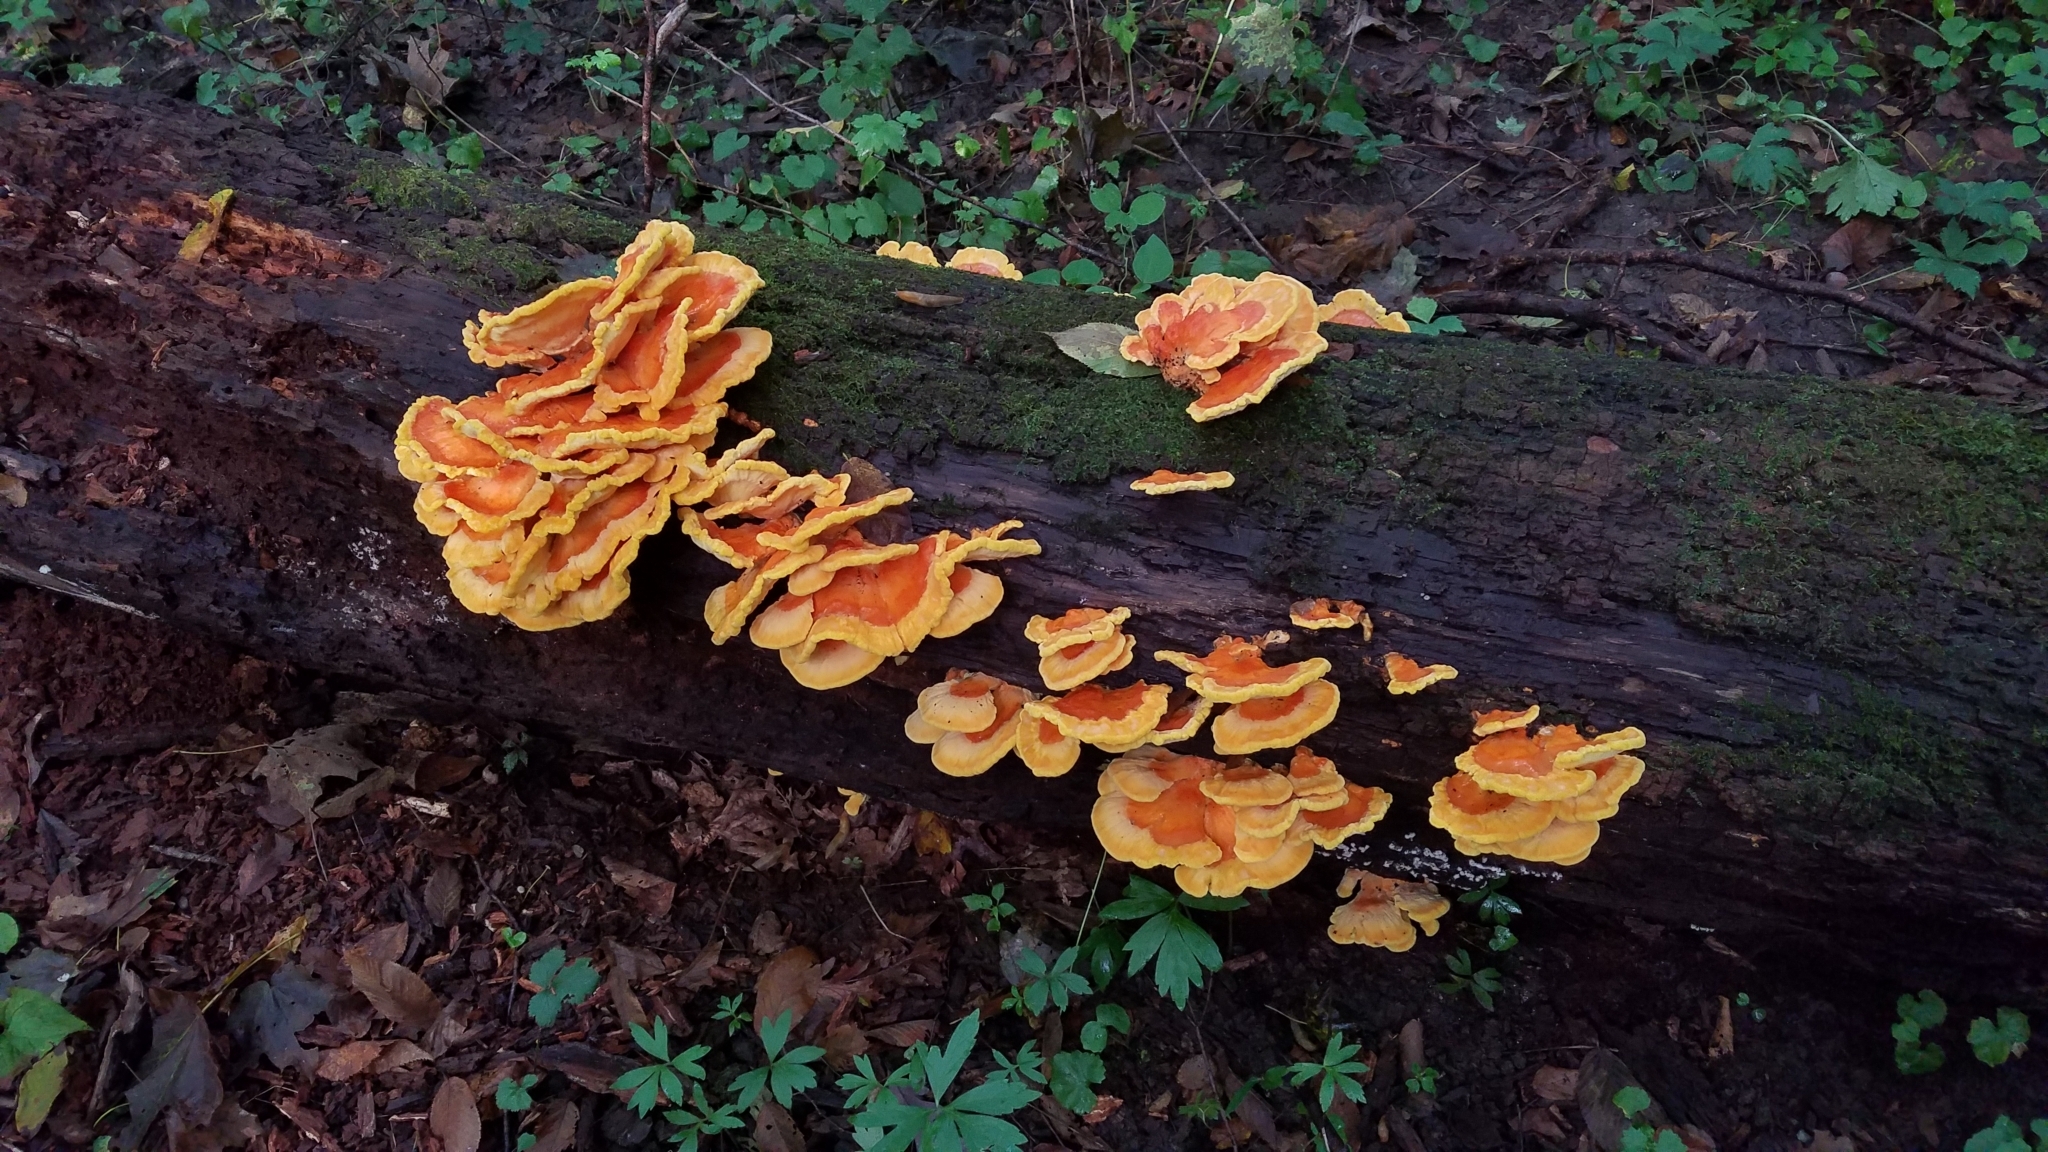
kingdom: Fungi
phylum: Basidiomycota
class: Agaricomycetes
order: Polyporales
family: Laetiporaceae
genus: Laetiporus
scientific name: Laetiporus sulphureus
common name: Chicken of the woods
